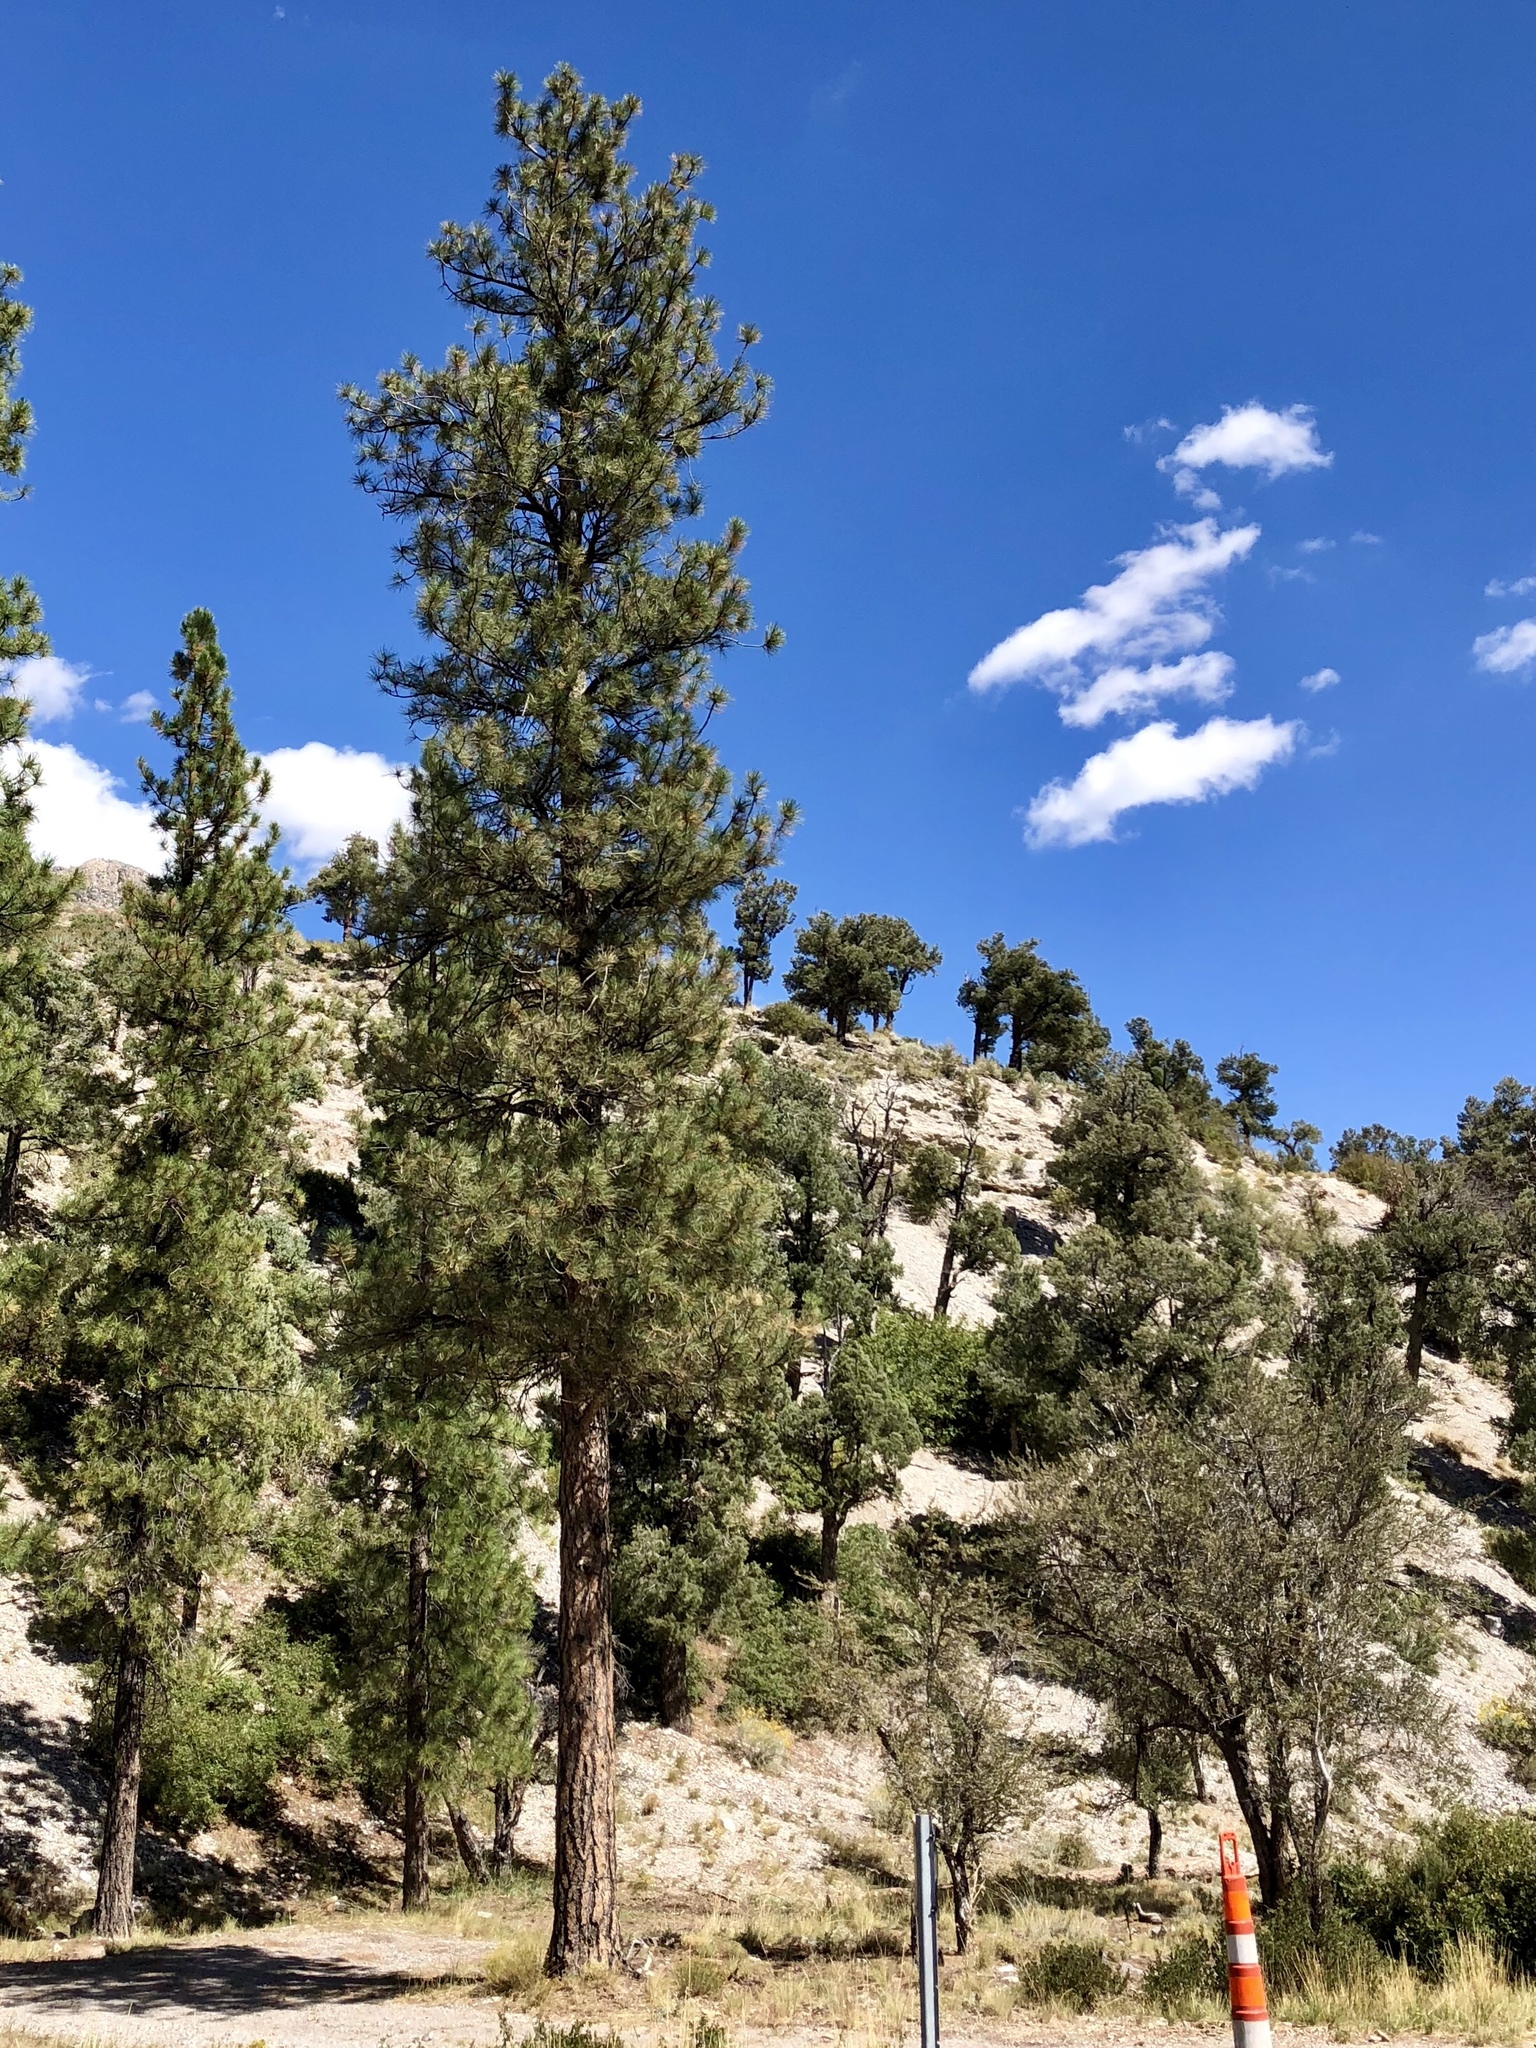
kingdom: Plantae
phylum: Tracheophyta
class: Pinopsida
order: Pinales
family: Pinaceae
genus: Pinus
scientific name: Pinus ponderosa
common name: Western yellow-pine
